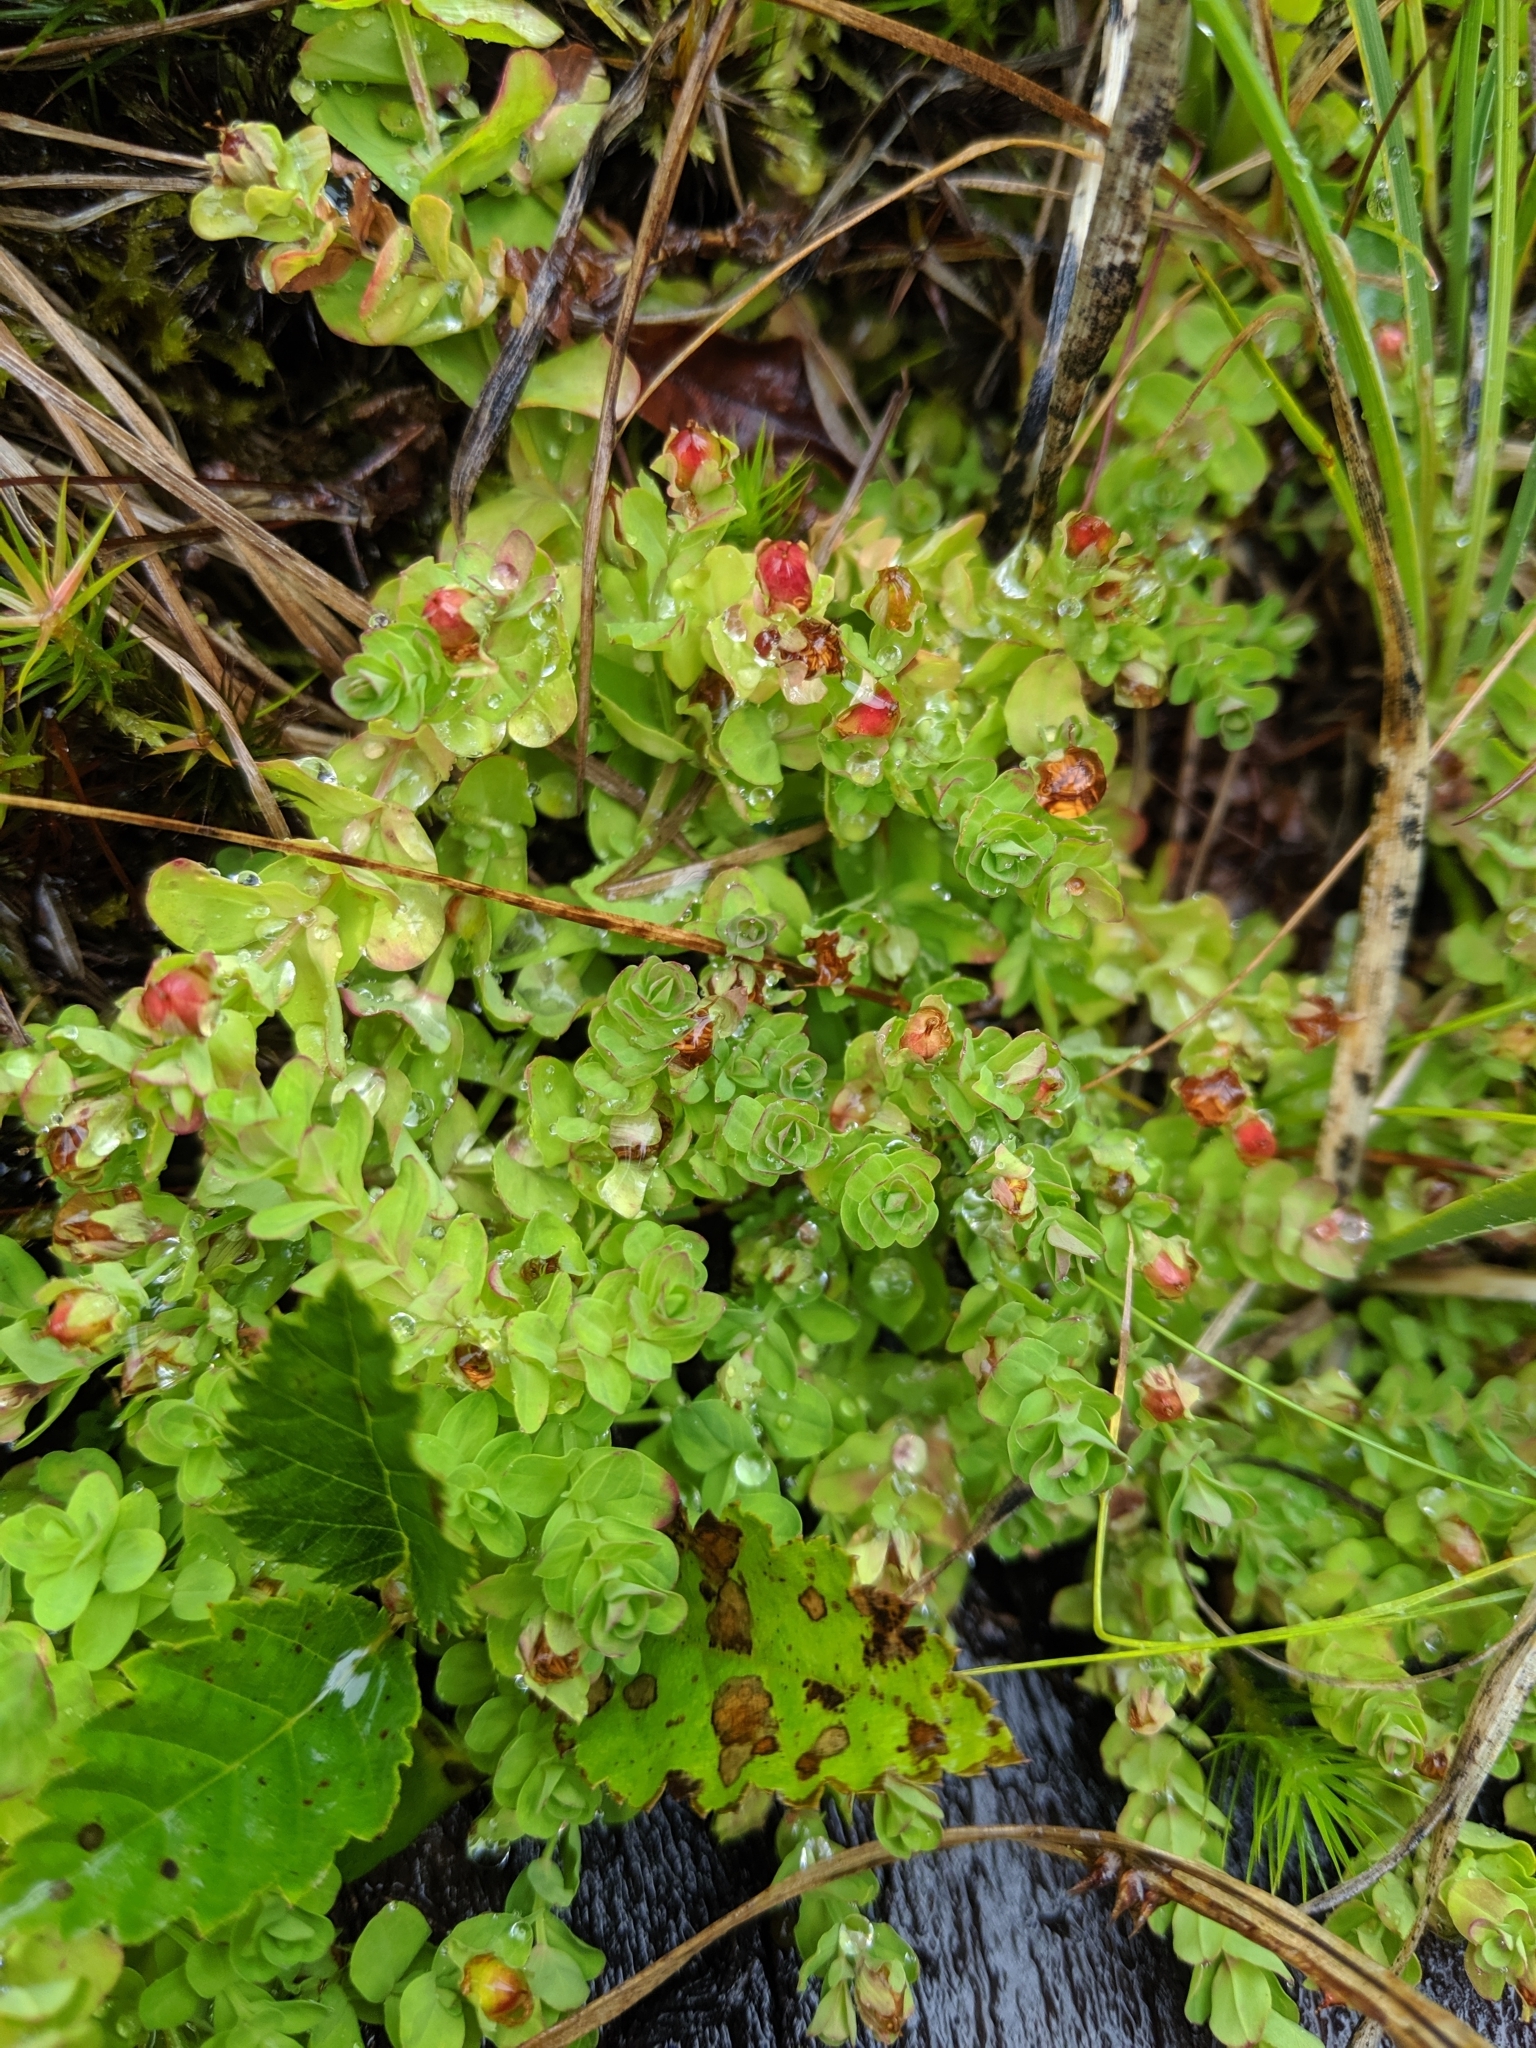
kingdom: Plantae
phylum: Tracheophyta
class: Magnoliopsida
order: Malpighiales
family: Hypericaceae
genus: Hypericum
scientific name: Hypericum anagalloides
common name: Bog st. john's-wort
